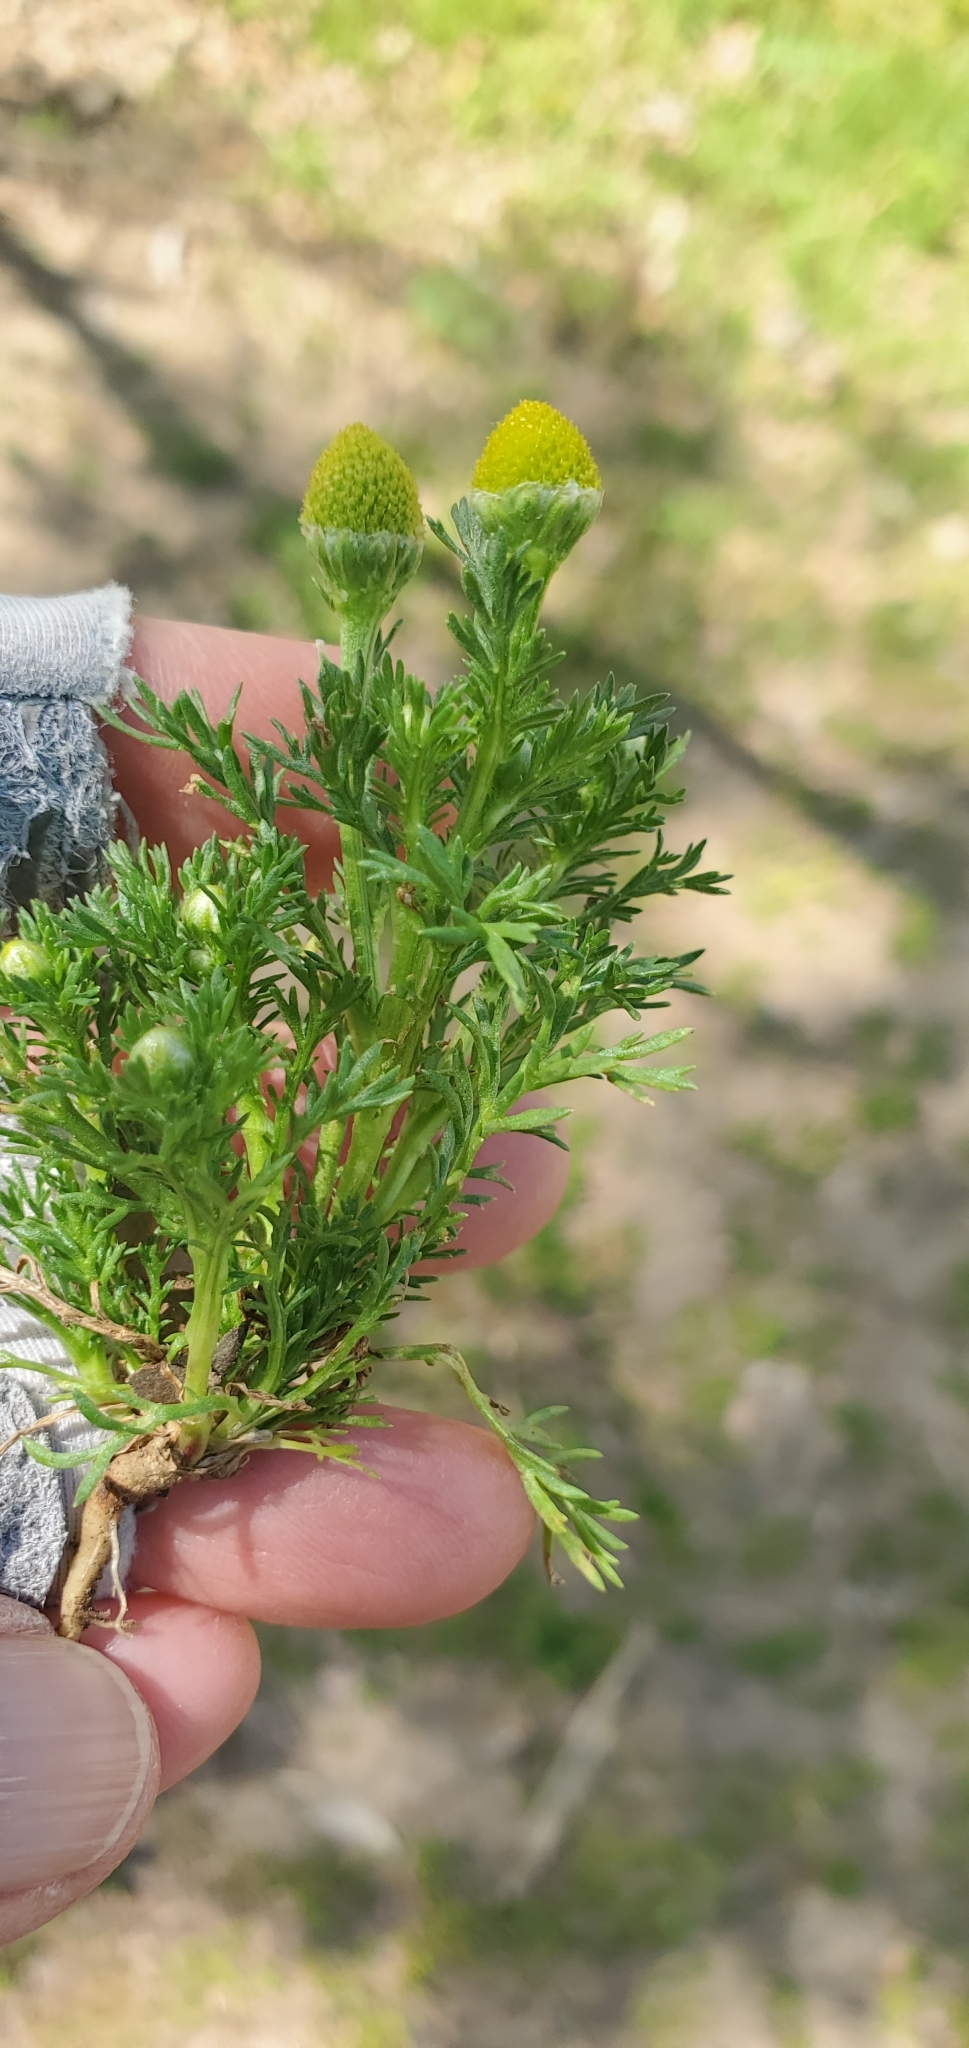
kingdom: Plantae
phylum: Tracheophyta
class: Magnoliopsida
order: Asterales
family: Asteraceae
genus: Matricaria
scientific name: Matricaria discoidea
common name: Disc mayweed
